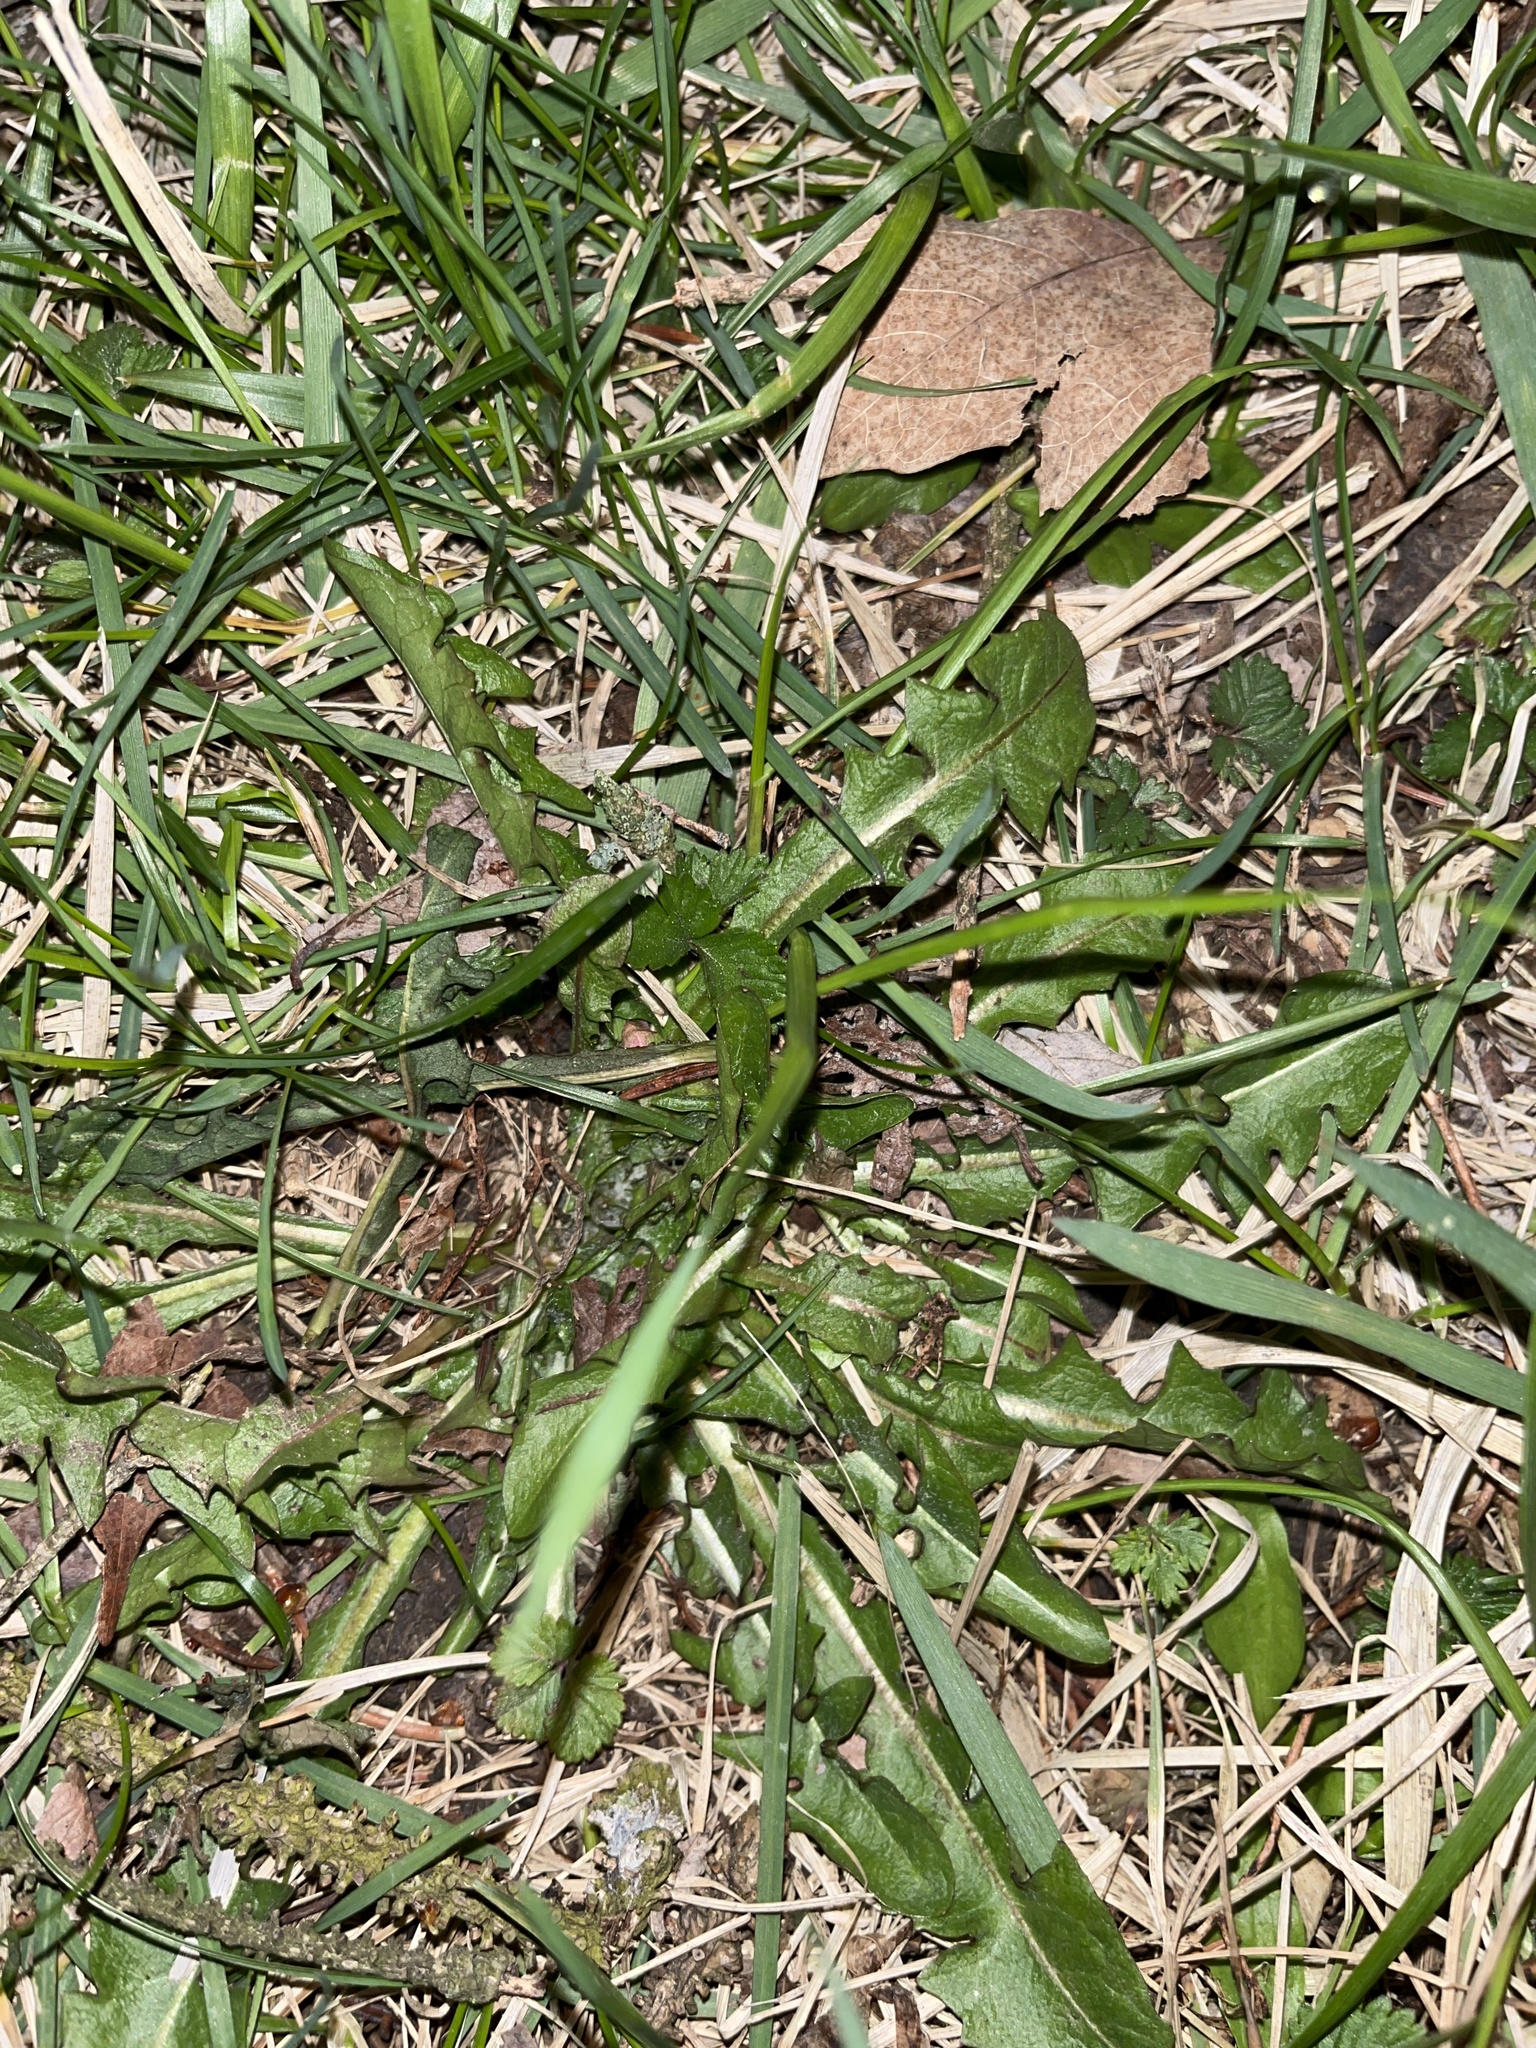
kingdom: Plantae
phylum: Tracheophyta
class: Magnoliopsida
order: Asterales
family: Asteraceae
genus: Taraxacum
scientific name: Taraxacum officinale
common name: Common dandelion
